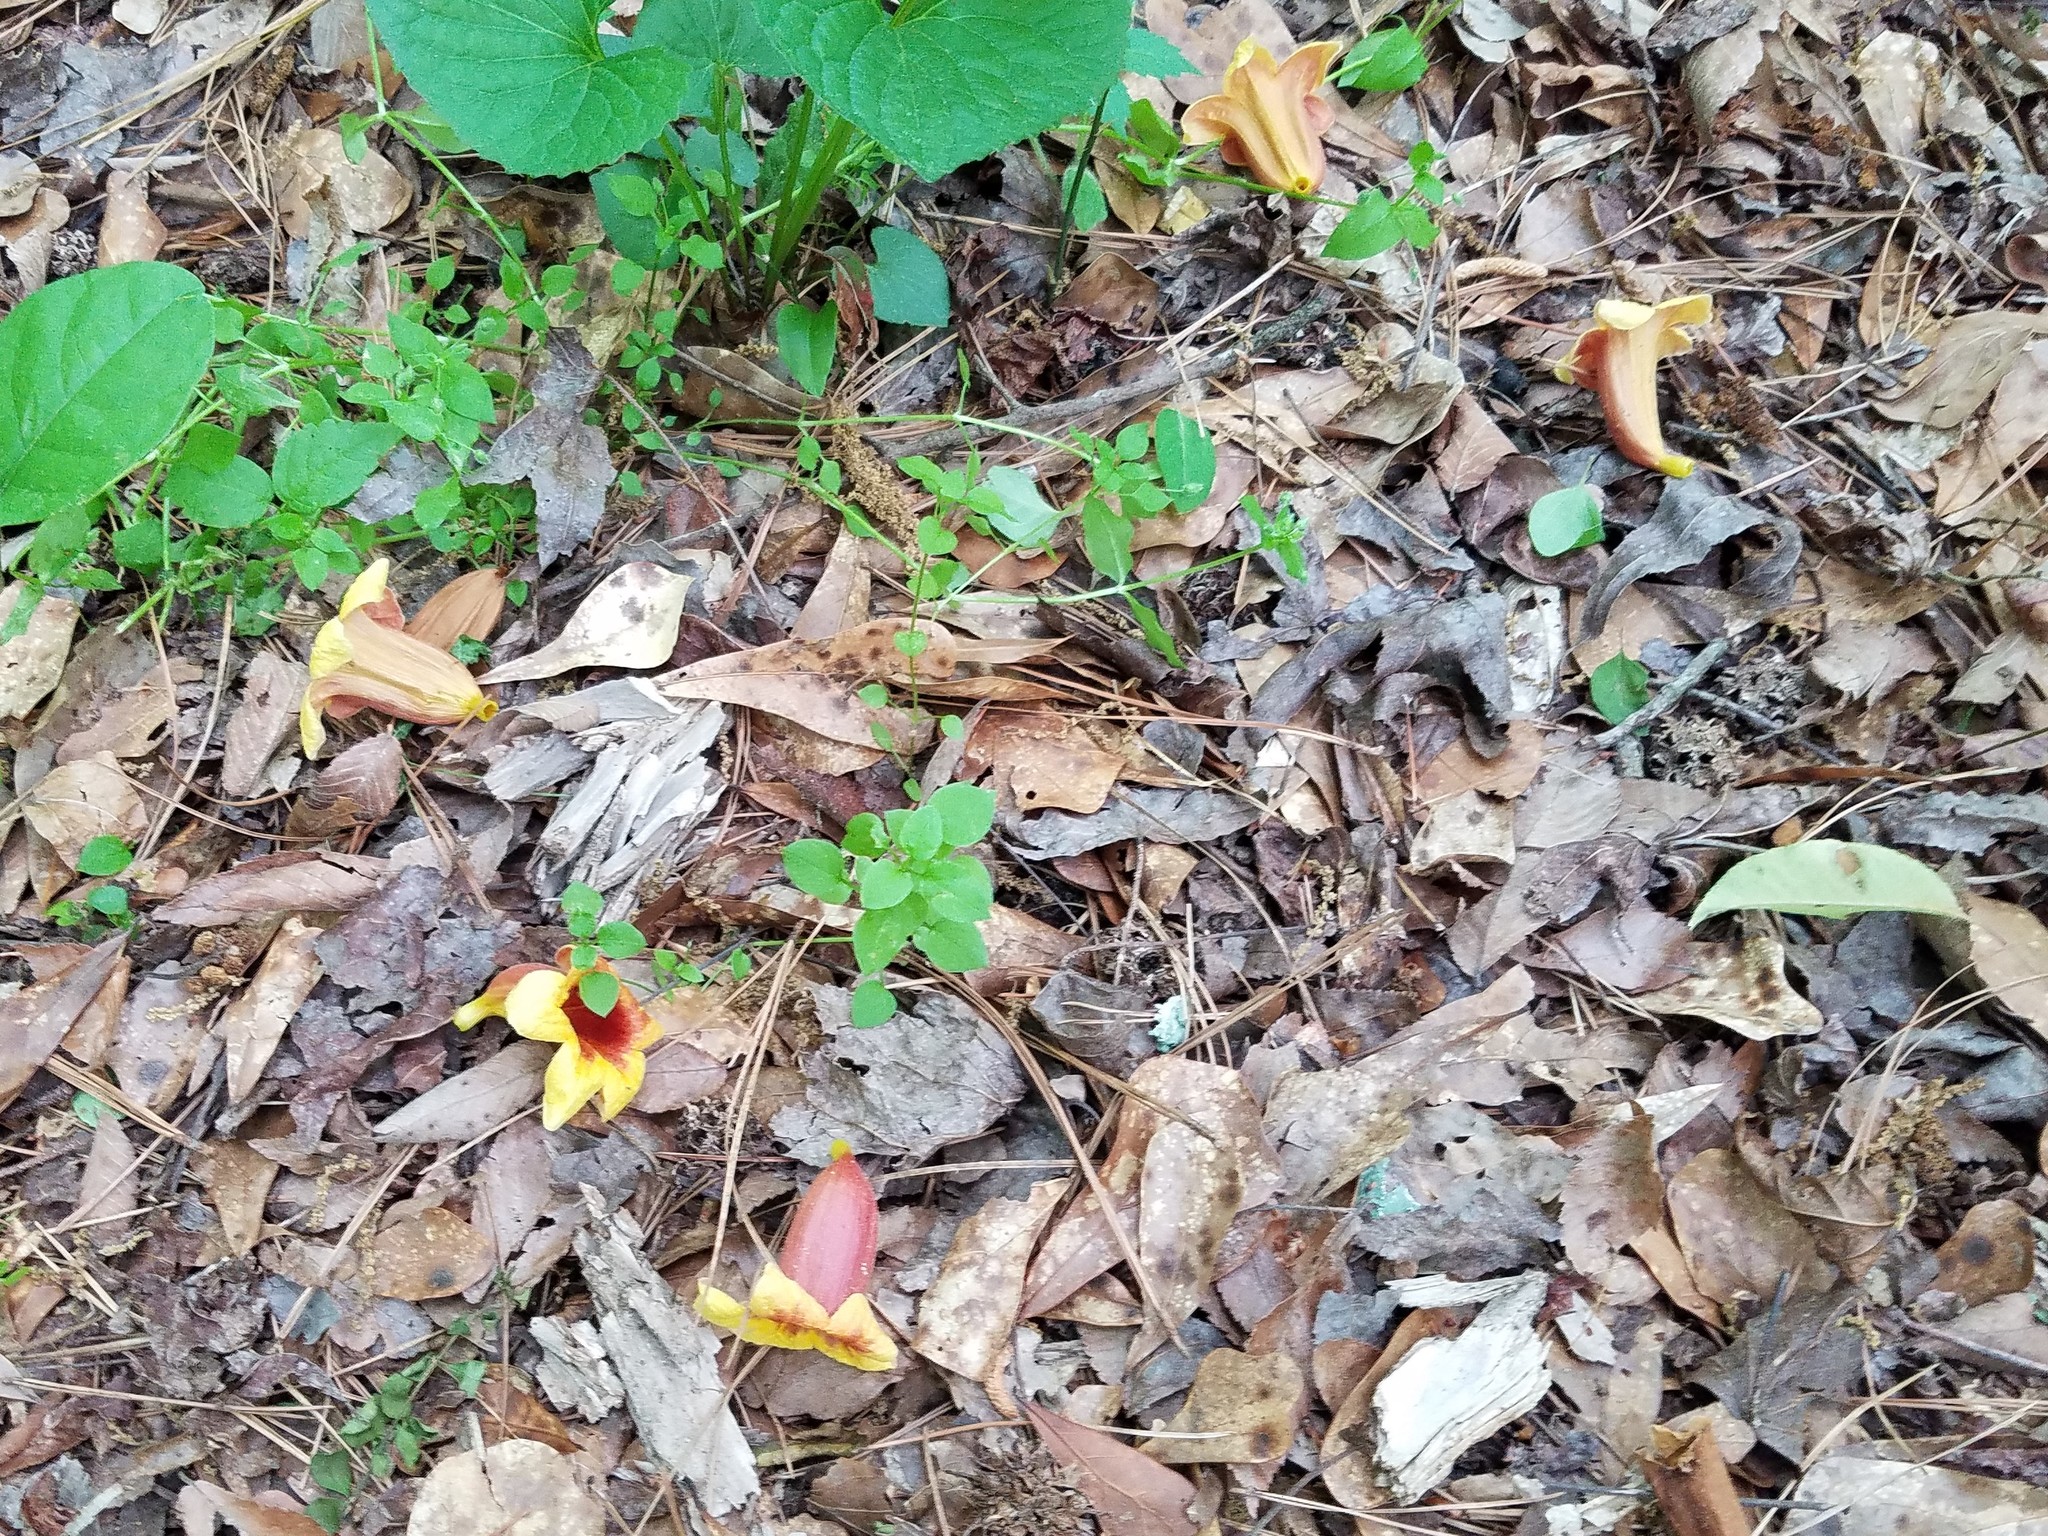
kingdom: Plantae
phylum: Tracheophyta
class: Magnoliopsida
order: Lamiales
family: Bignoniaceae
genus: Bignonia
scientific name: Bignonia capreolata
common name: Crossvine
